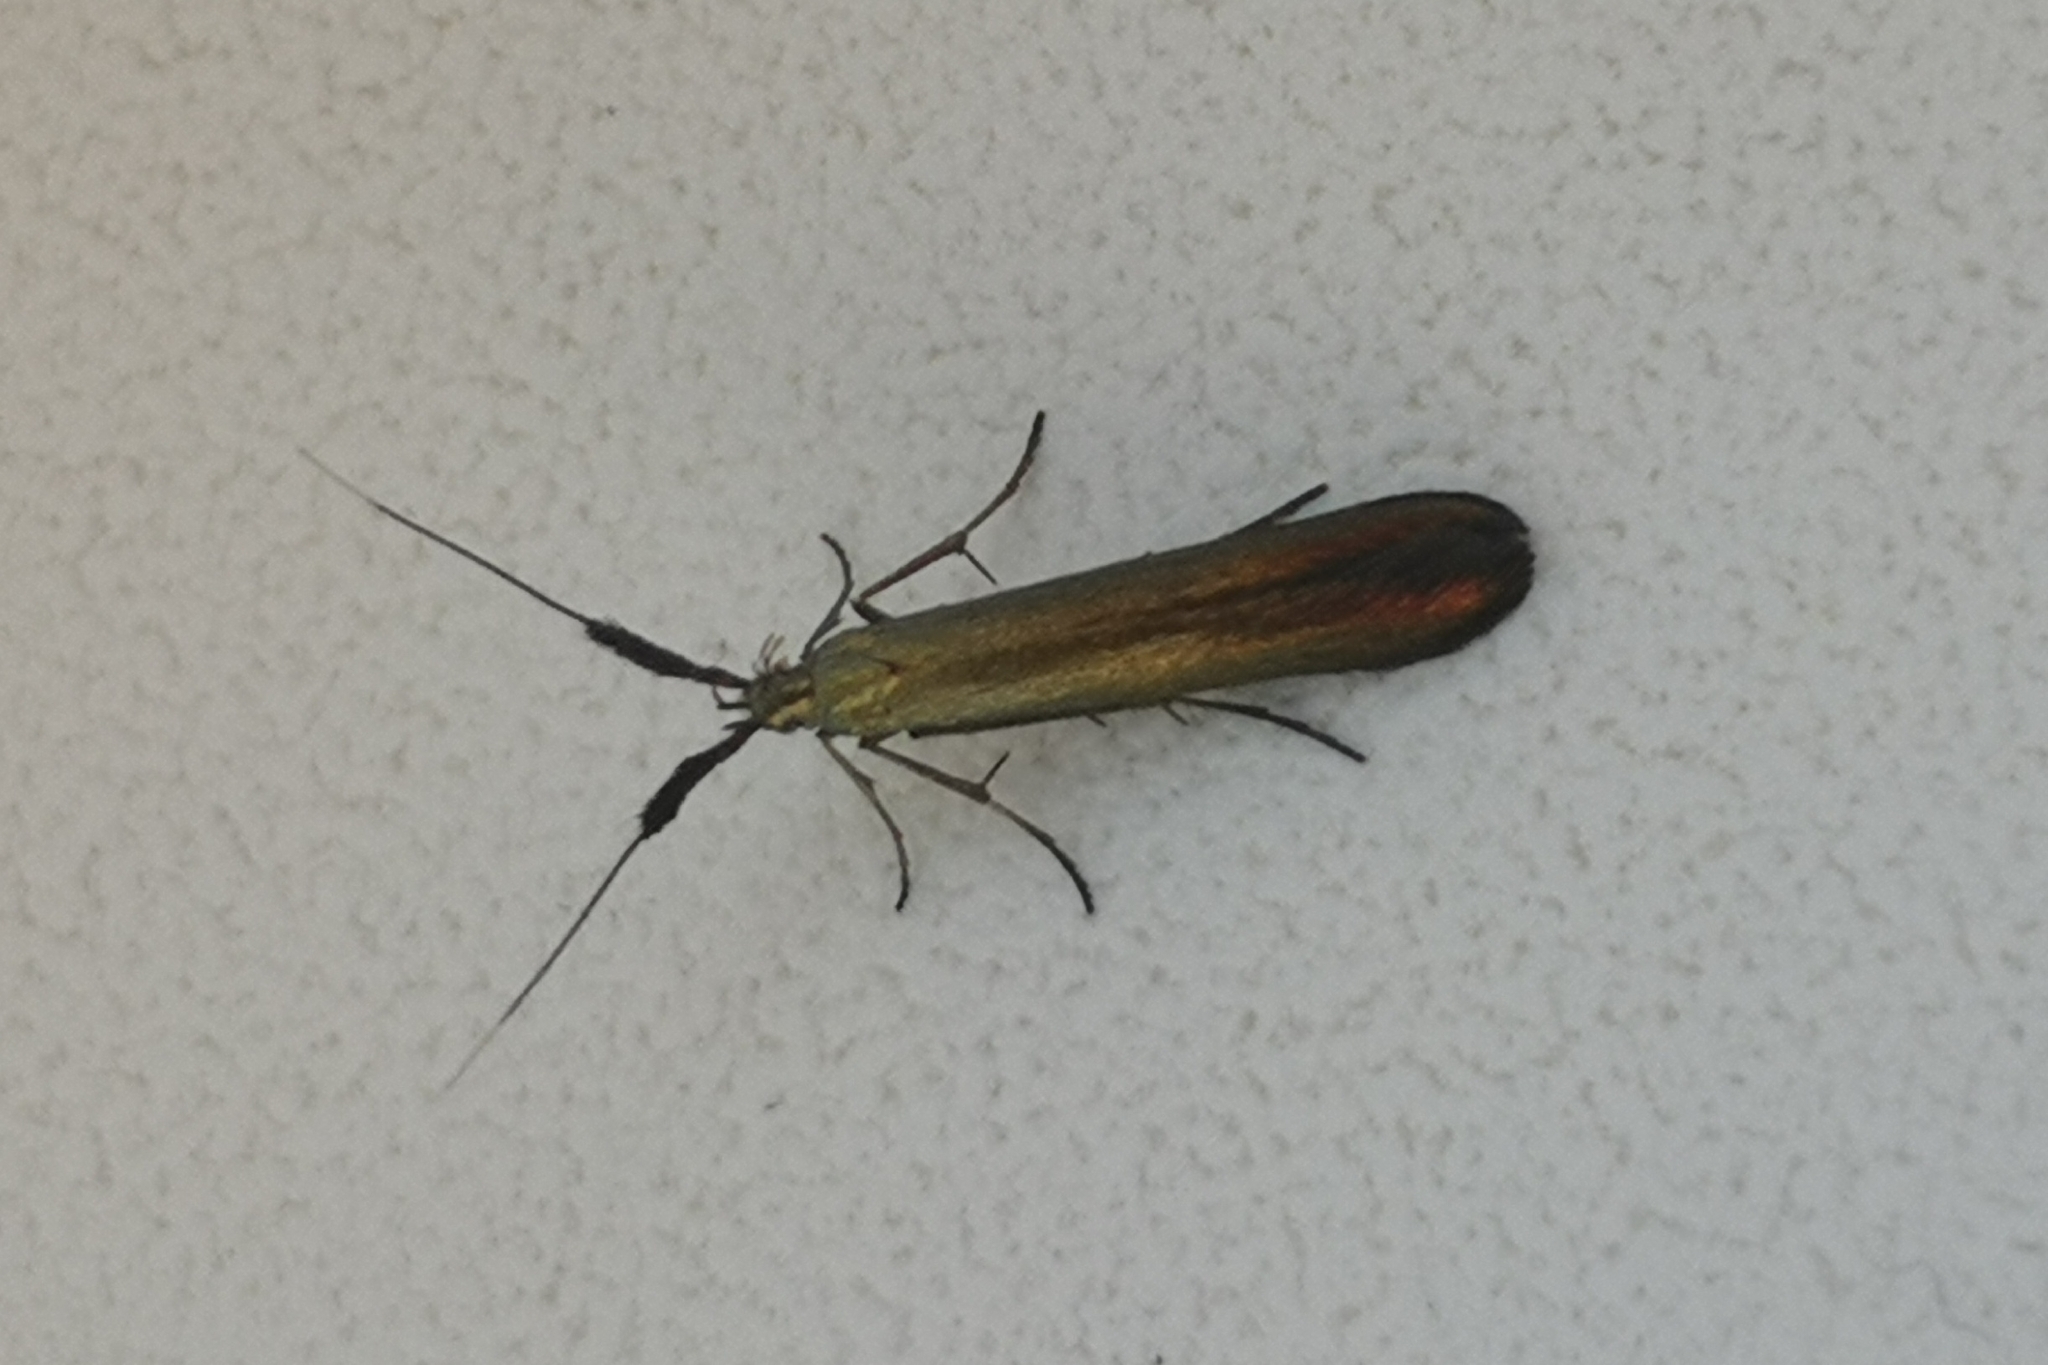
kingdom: Animalia
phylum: Arthropoda
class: Insecta
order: Lepidoptera
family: Coleophoridae
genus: Coleophora
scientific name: Coleophora deauratella
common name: Red-clover case-bearer
